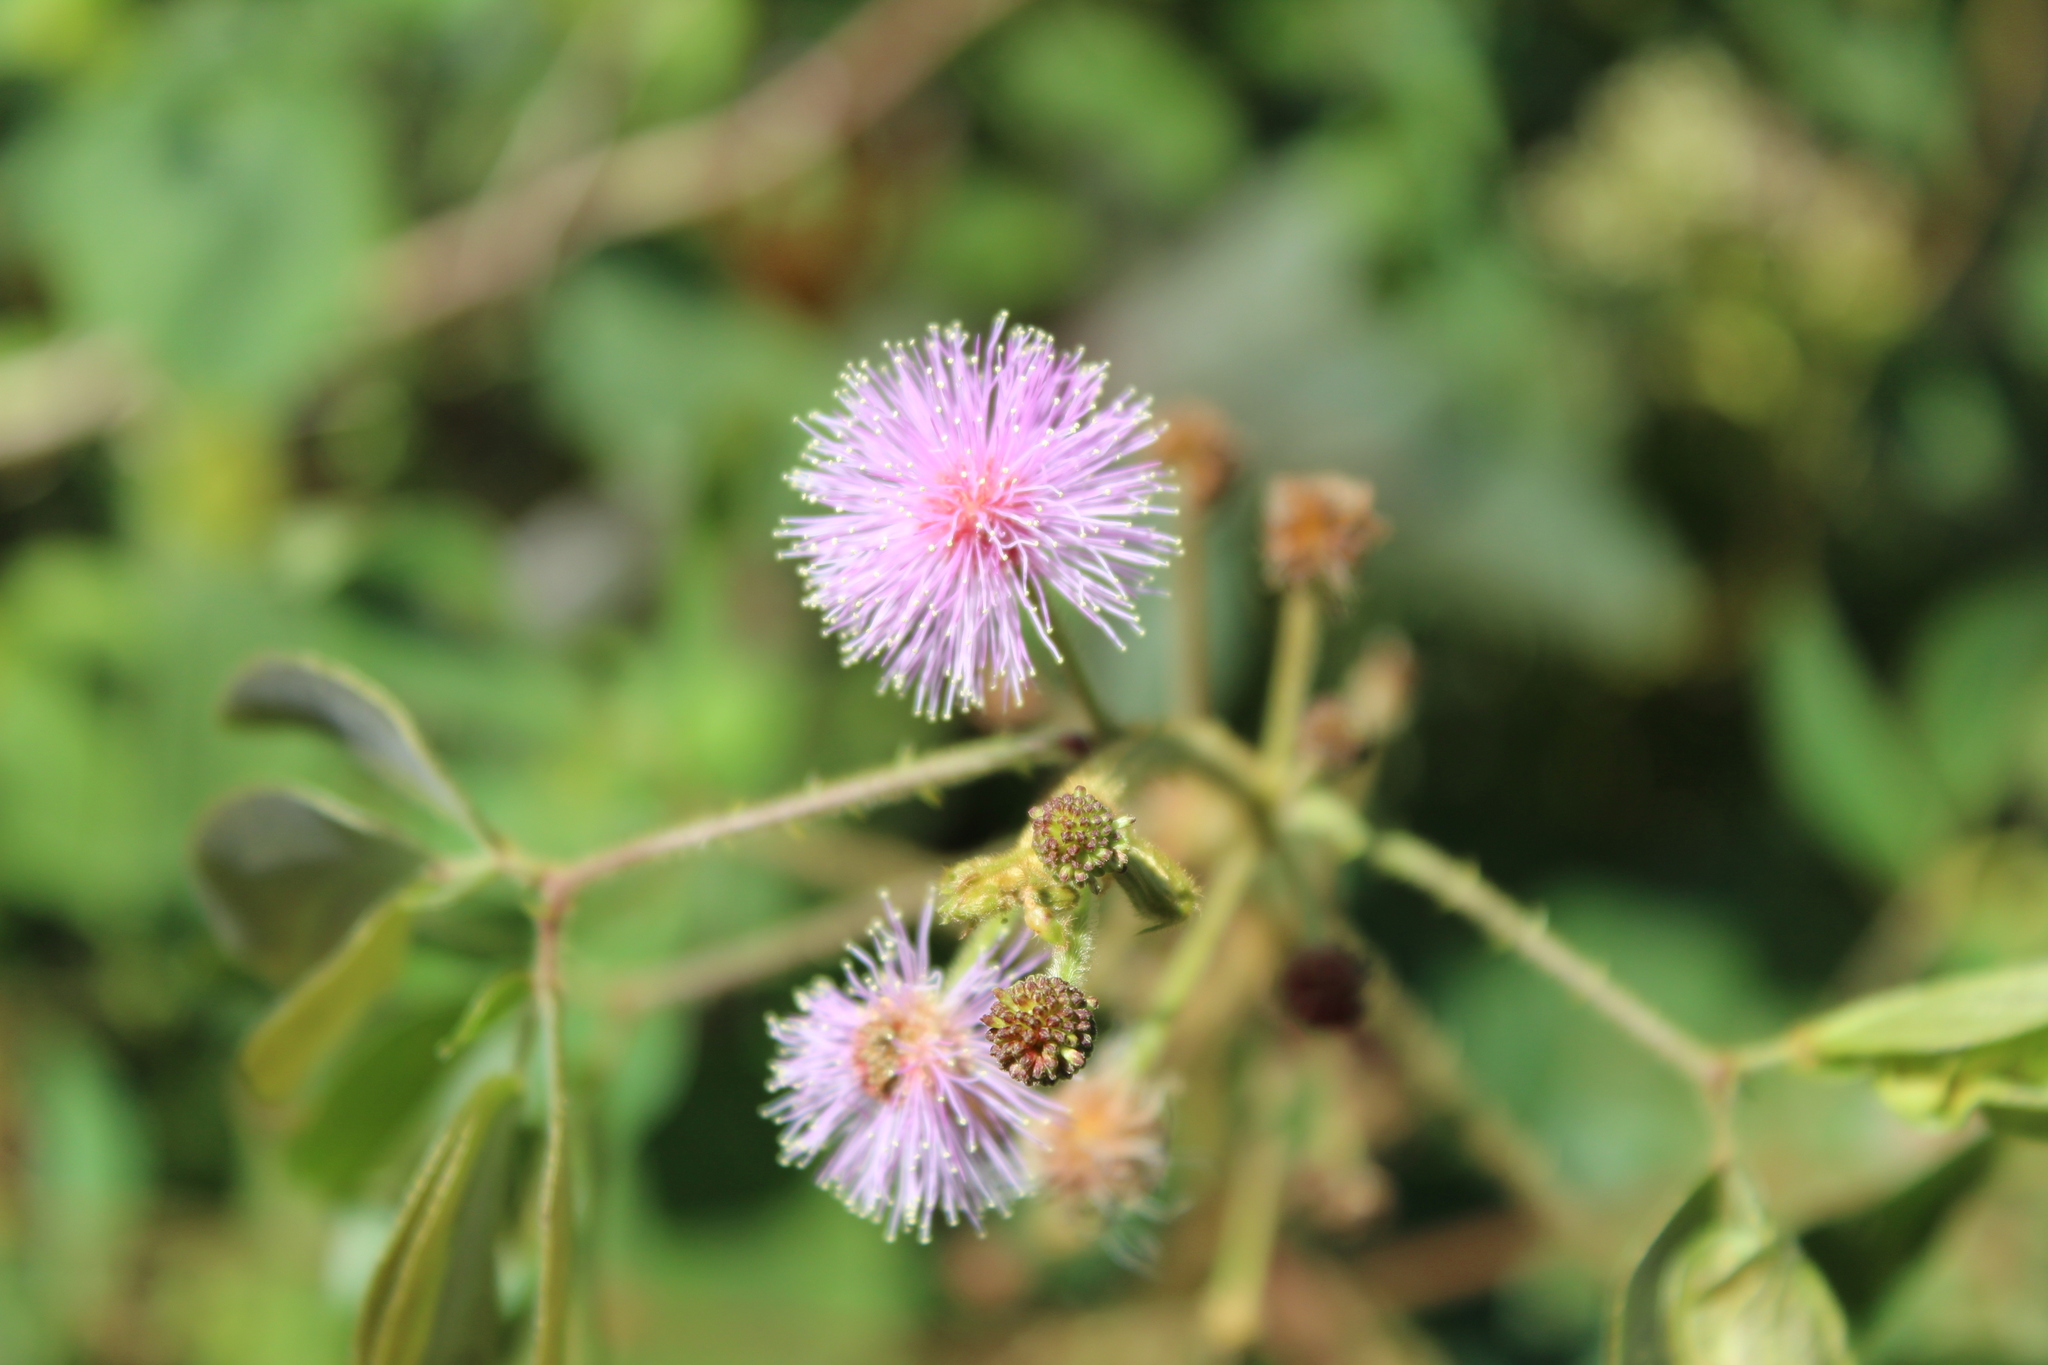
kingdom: Plantae
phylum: Tracheophyta
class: Magnoliopsida
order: Fabales
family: Fabaceae
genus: Mimosa
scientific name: Mimosa albida
